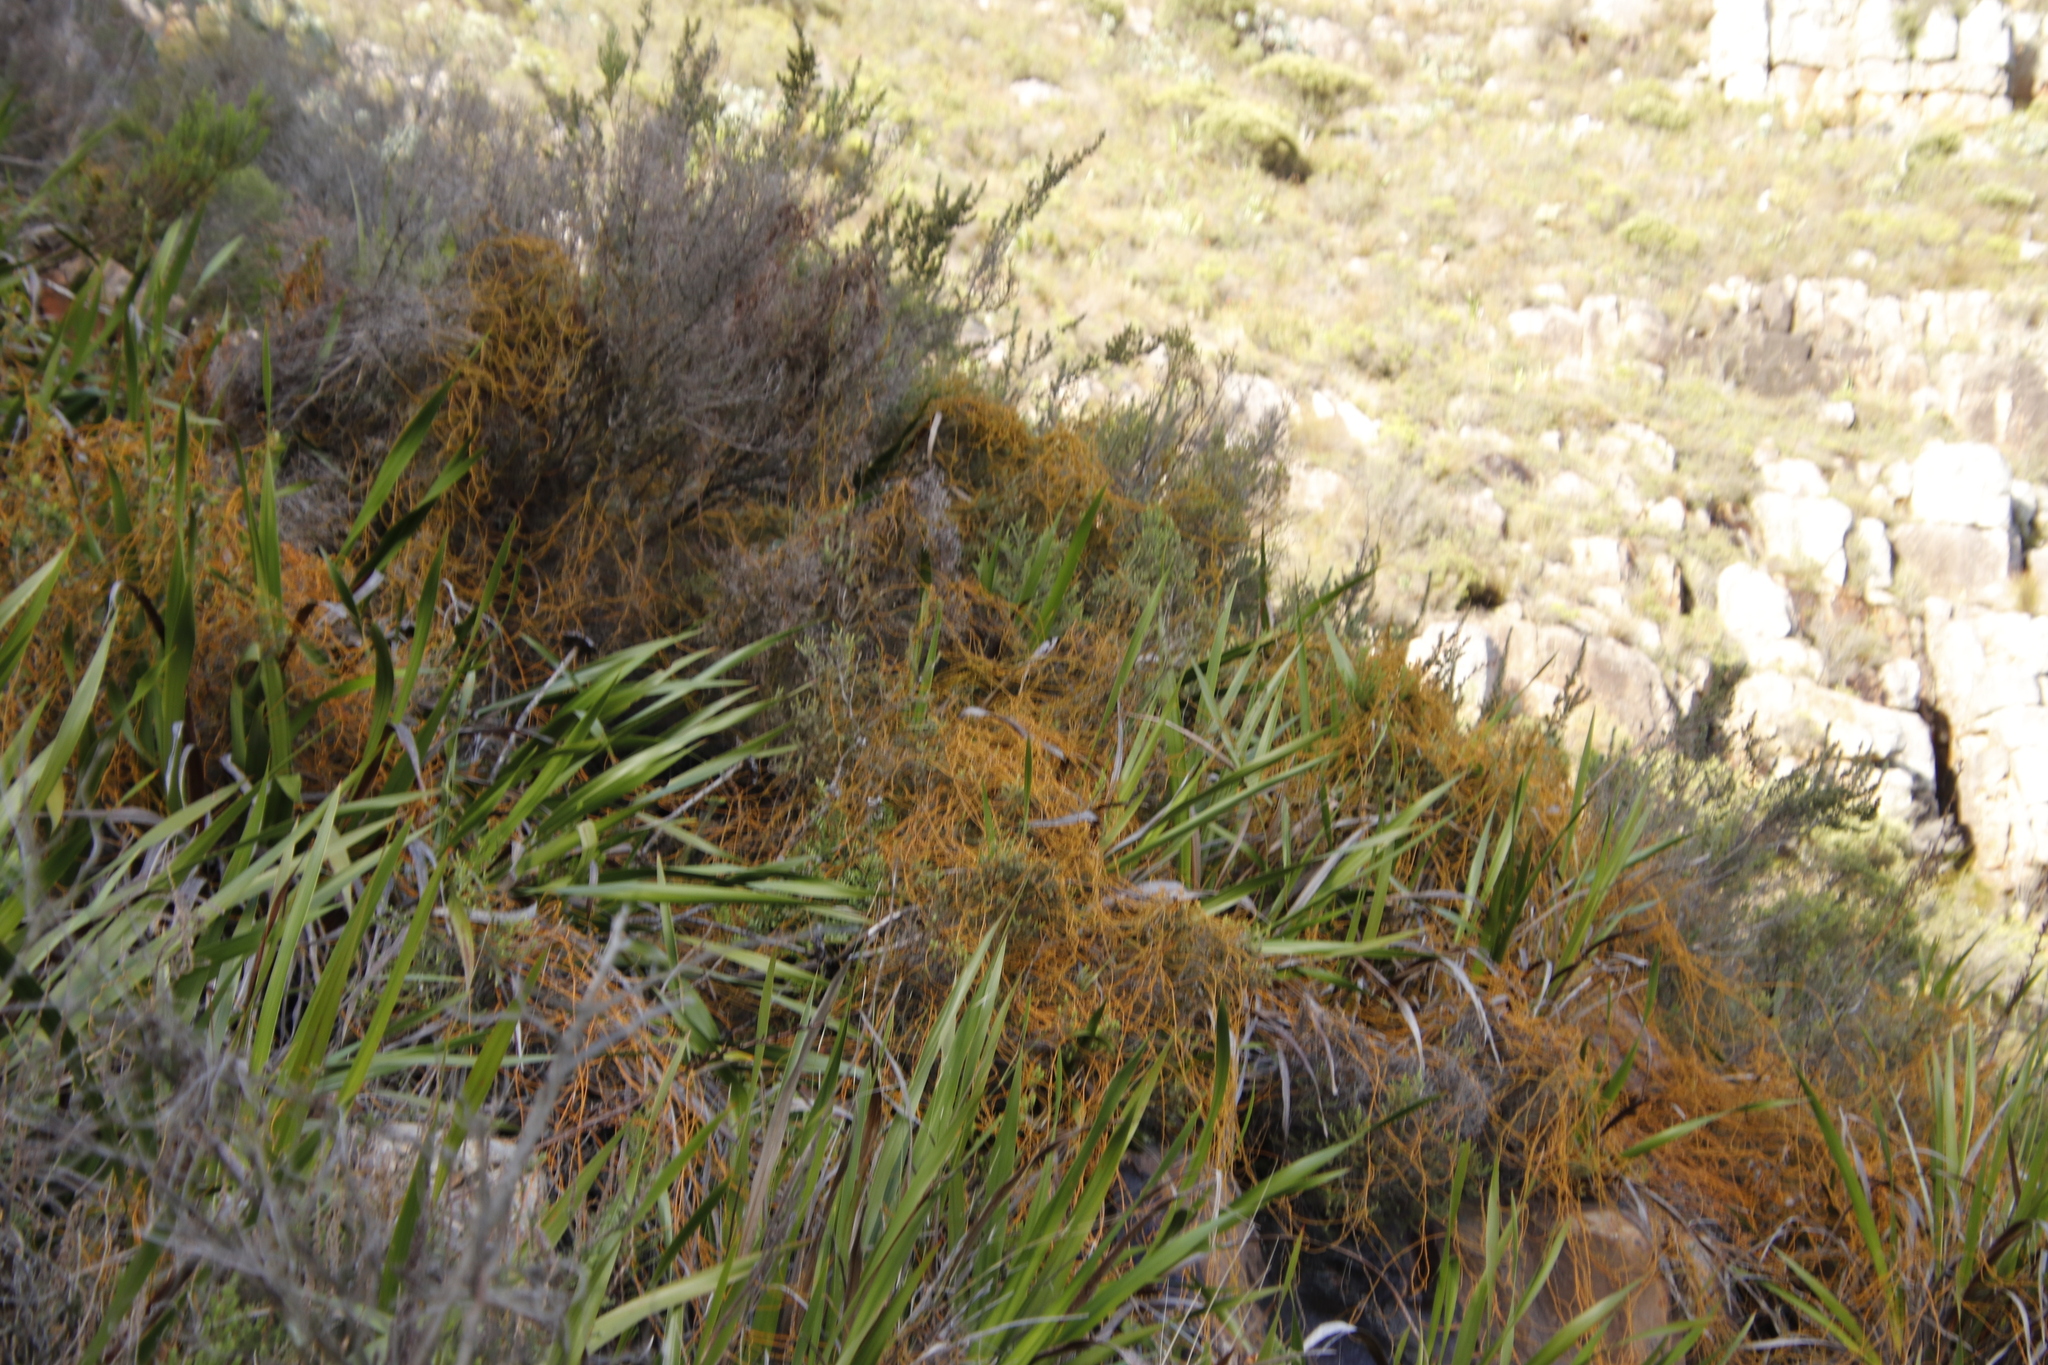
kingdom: Plantae
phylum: Tracheophyta
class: Magnoliopsida
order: Laurales
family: Lauraceae
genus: Cassytha
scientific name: Cassytha ciliolata
